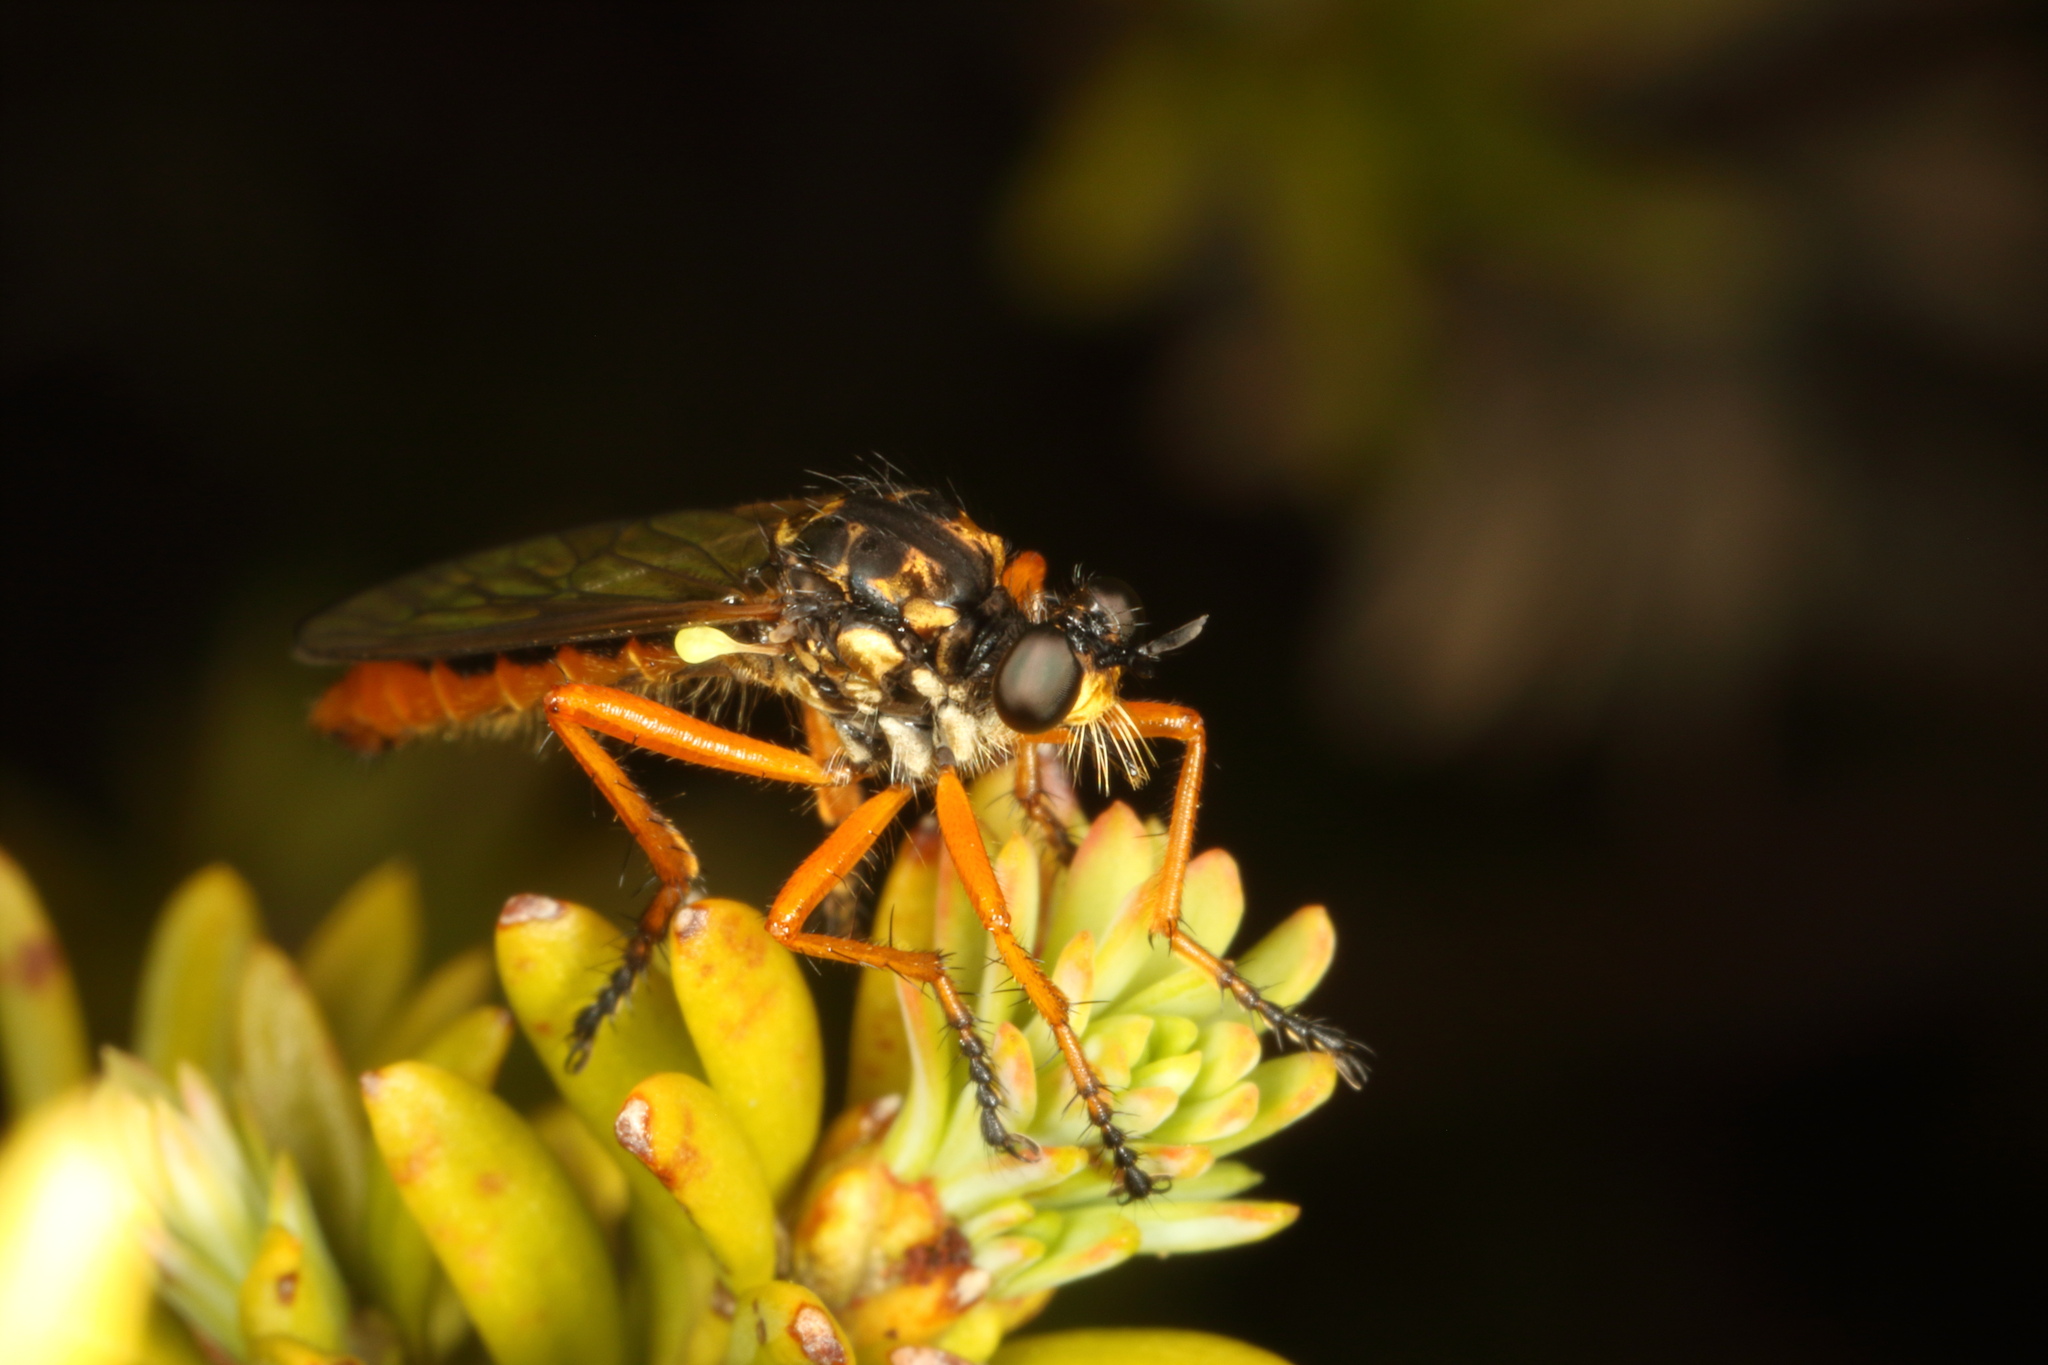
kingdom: Animalia
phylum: Arthropoda
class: Insecta
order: Diptera
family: Asilidae
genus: Saropogon
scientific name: Saropogon fugiens
